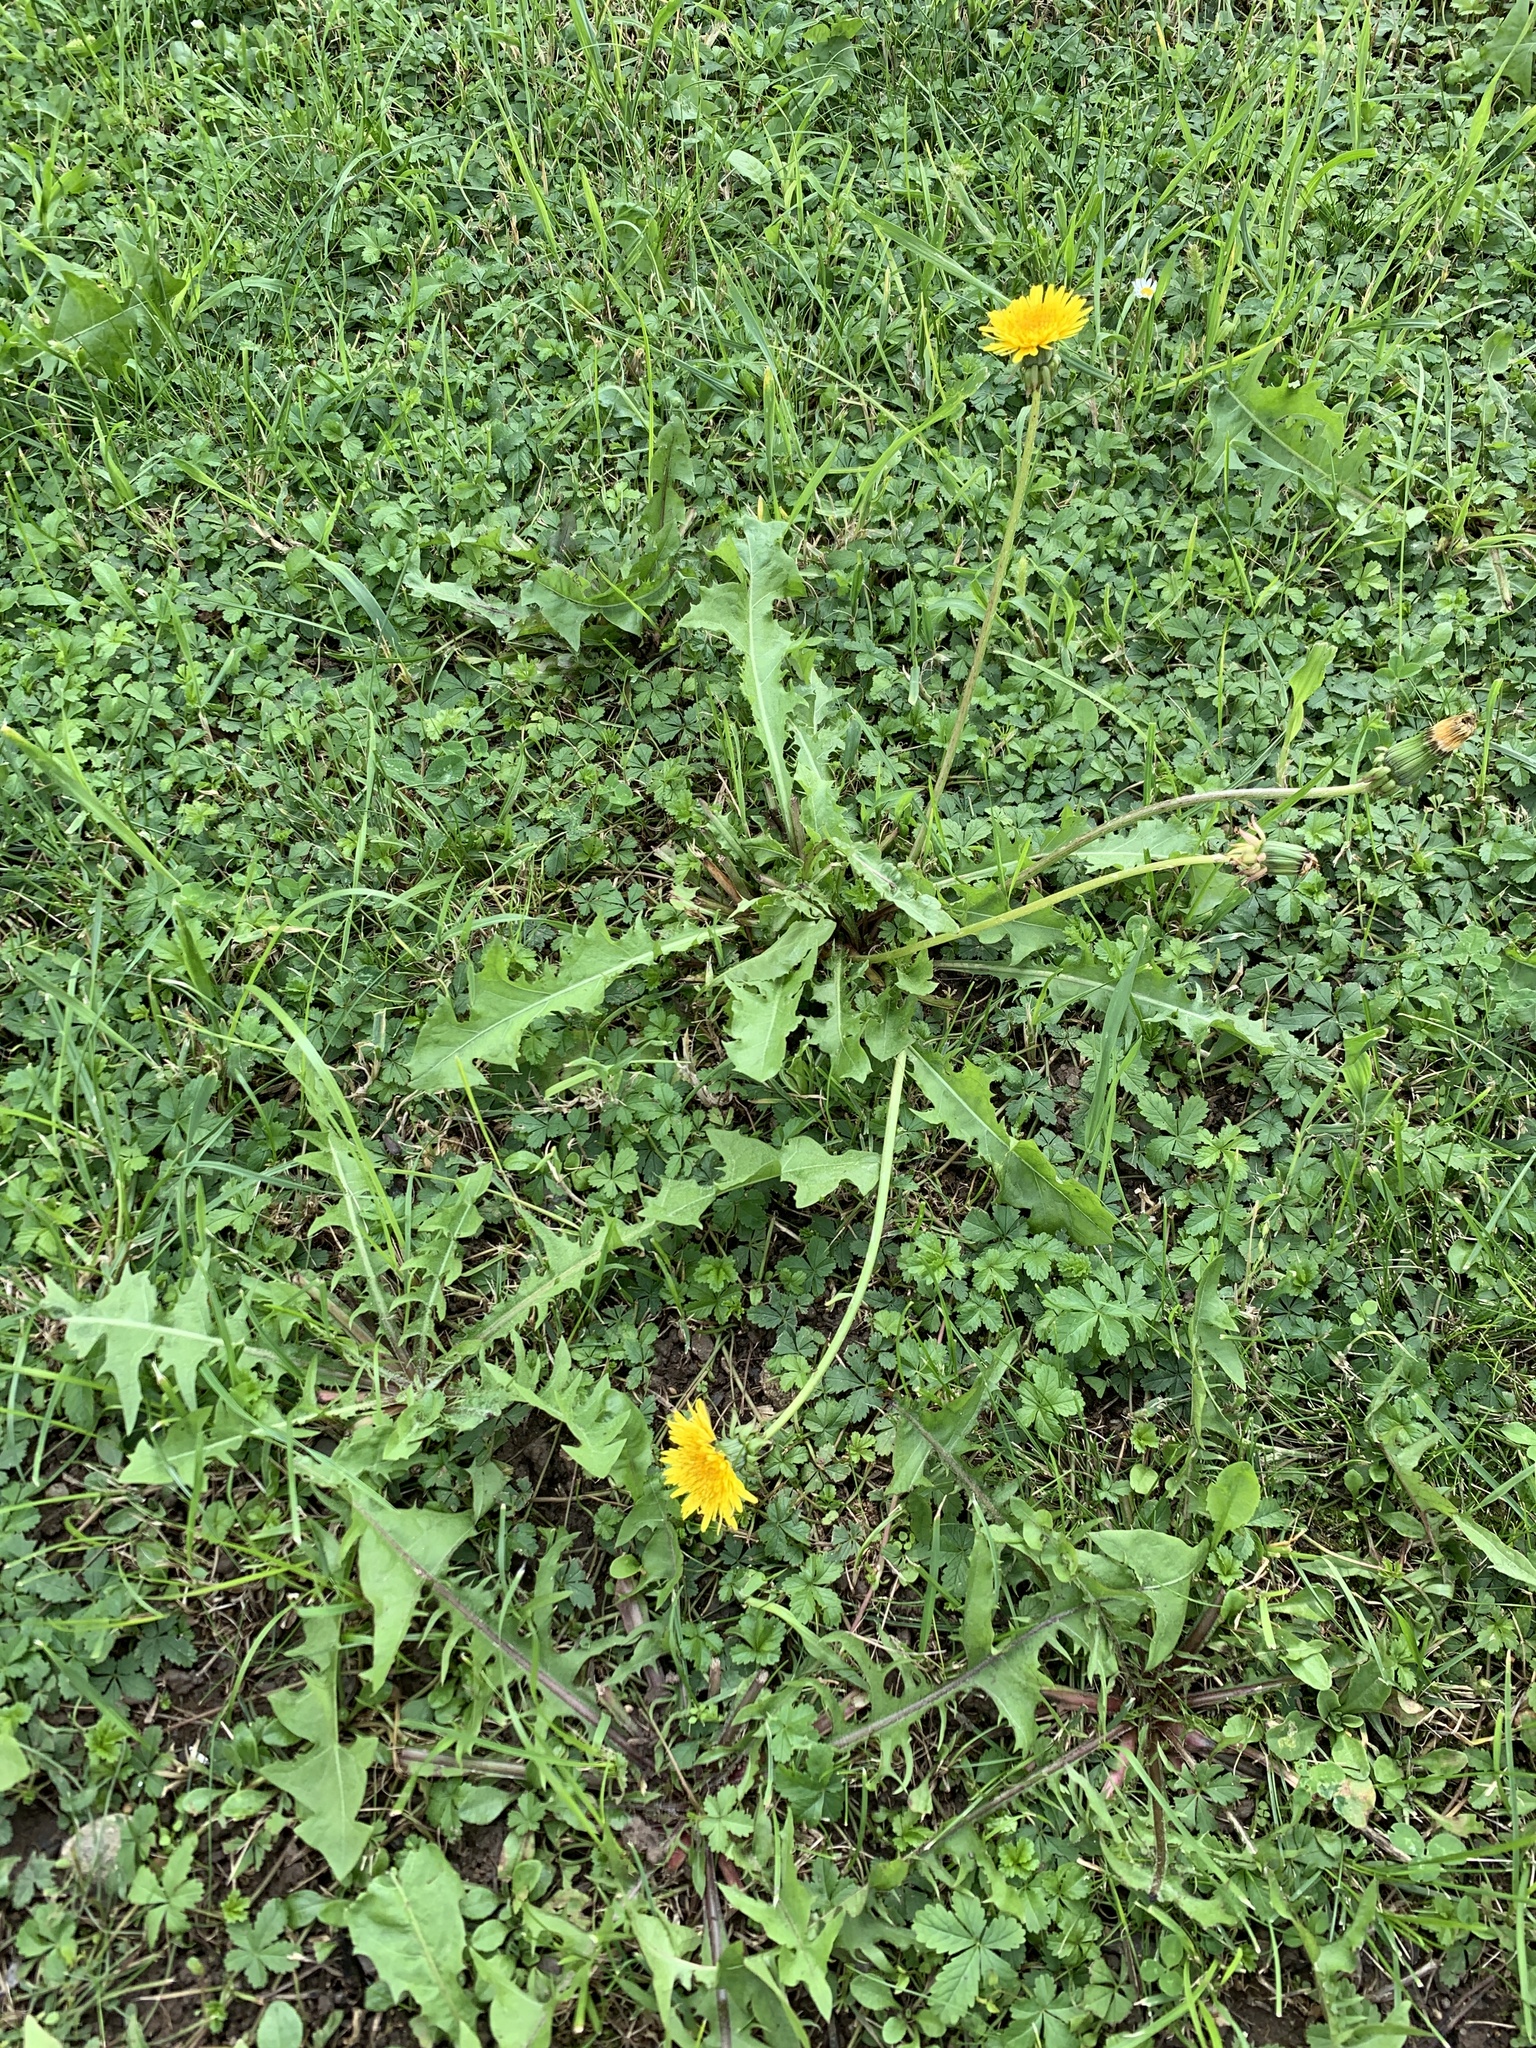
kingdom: Plantae
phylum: Tracheophyta
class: Magnoliopsida
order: Asterales
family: Asteraceae
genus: Taraxacum
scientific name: Taraxacum
